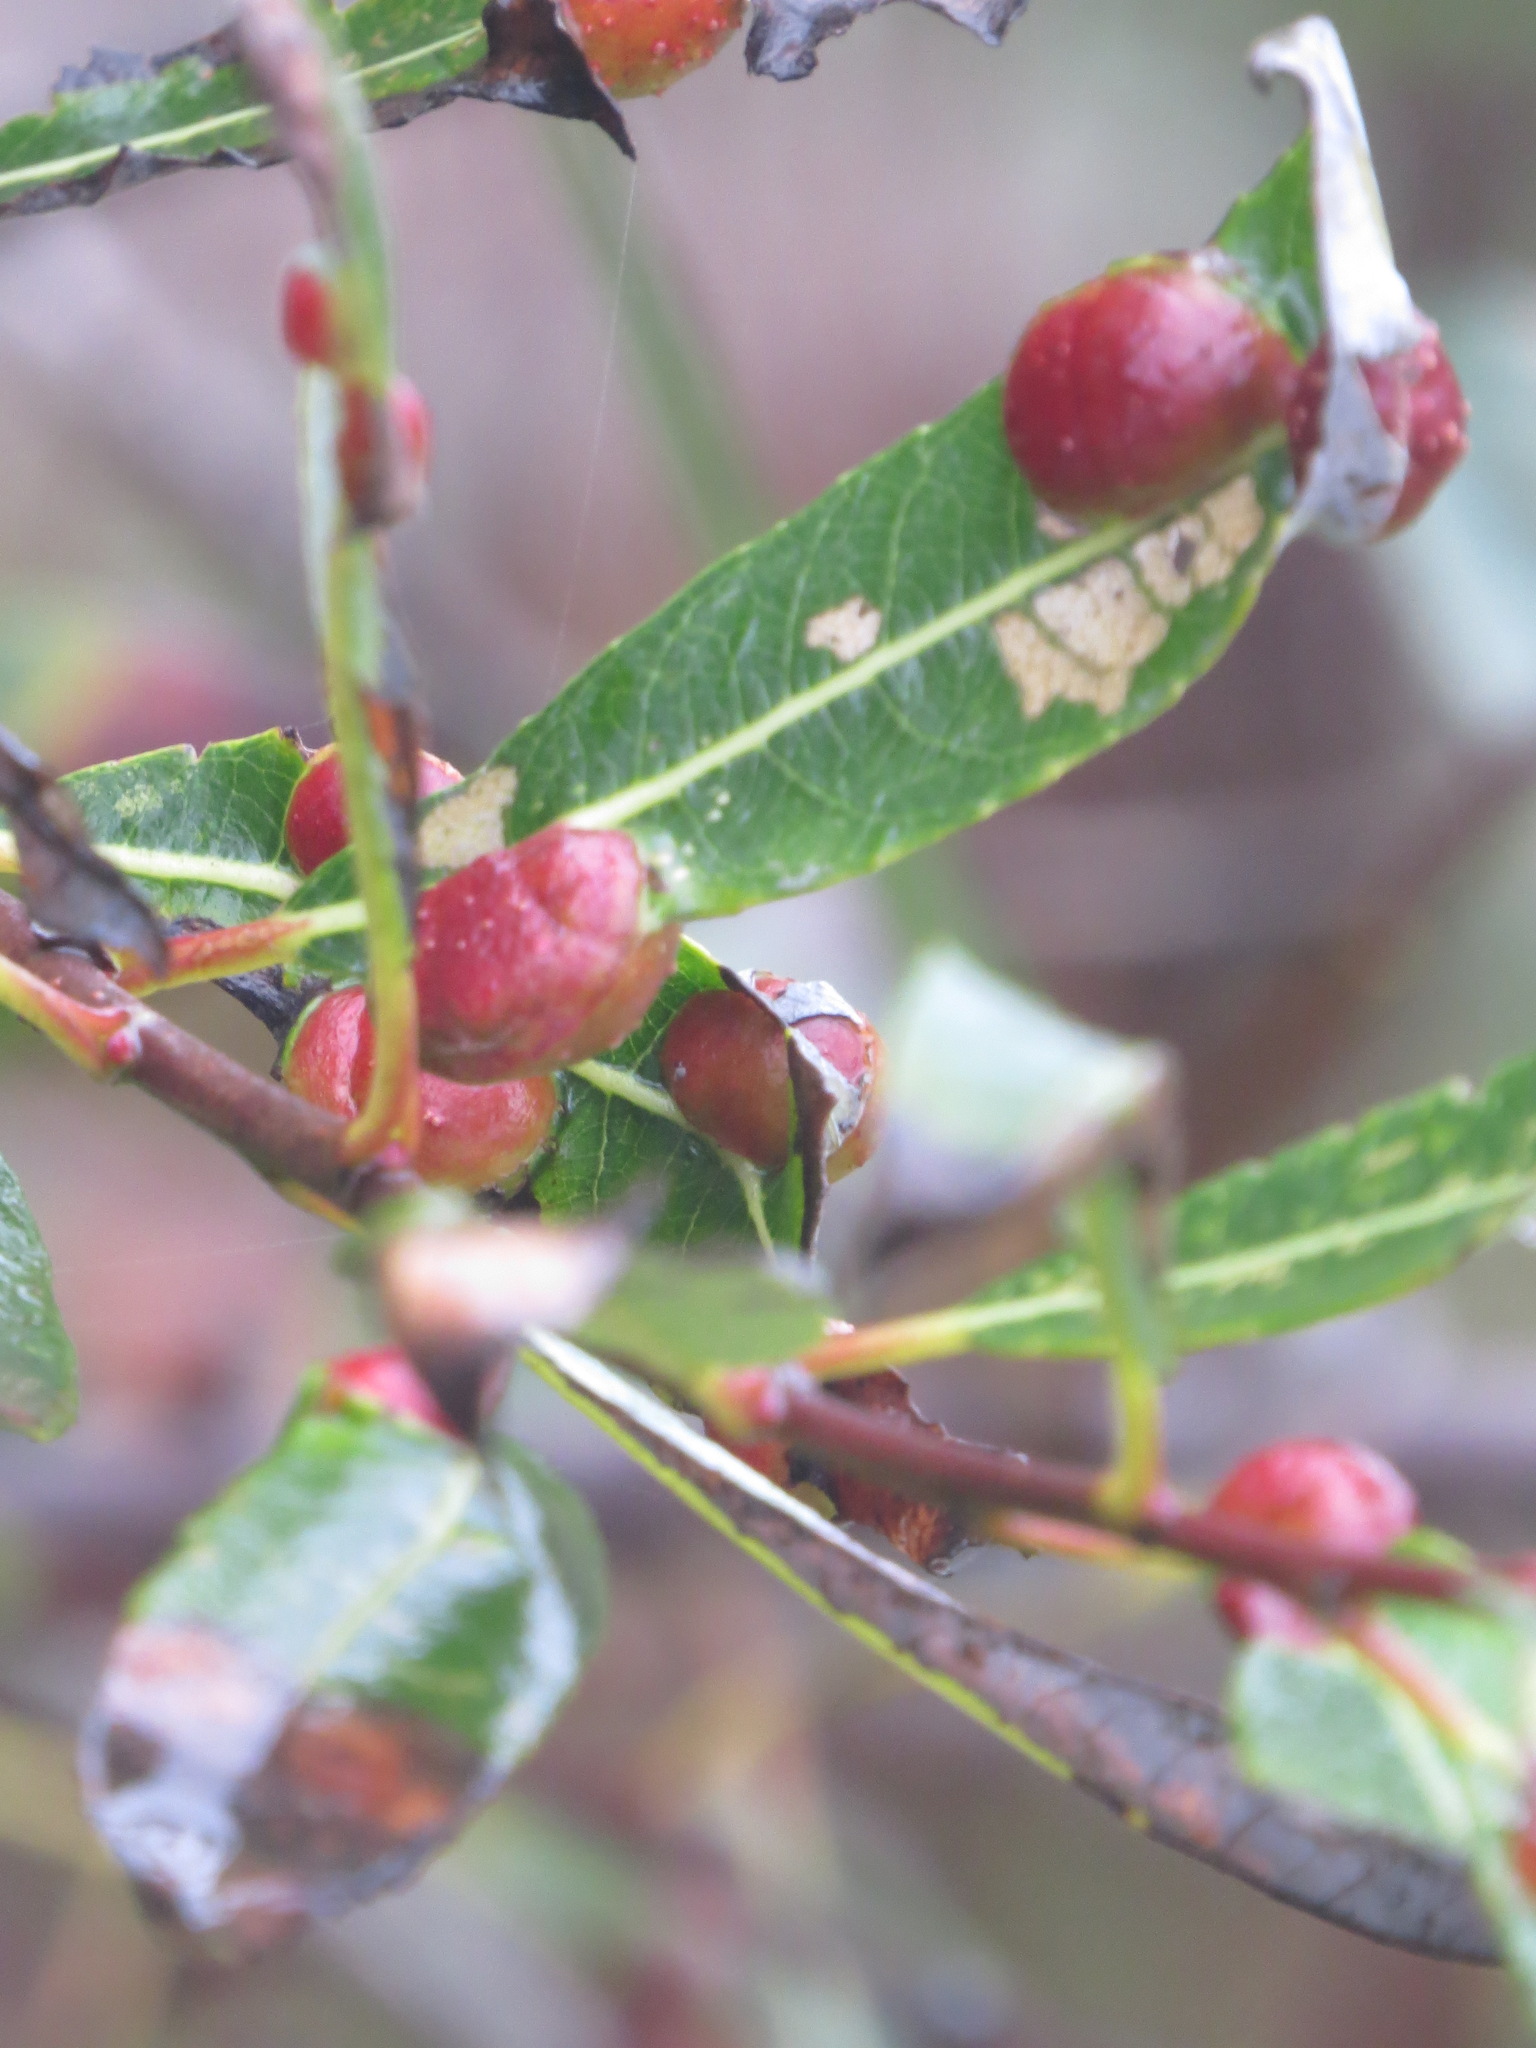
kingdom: Animalia
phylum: Arthropoda
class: Insecta
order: Hymenoptera
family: Tenthredinidae
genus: Euura
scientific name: Euura
